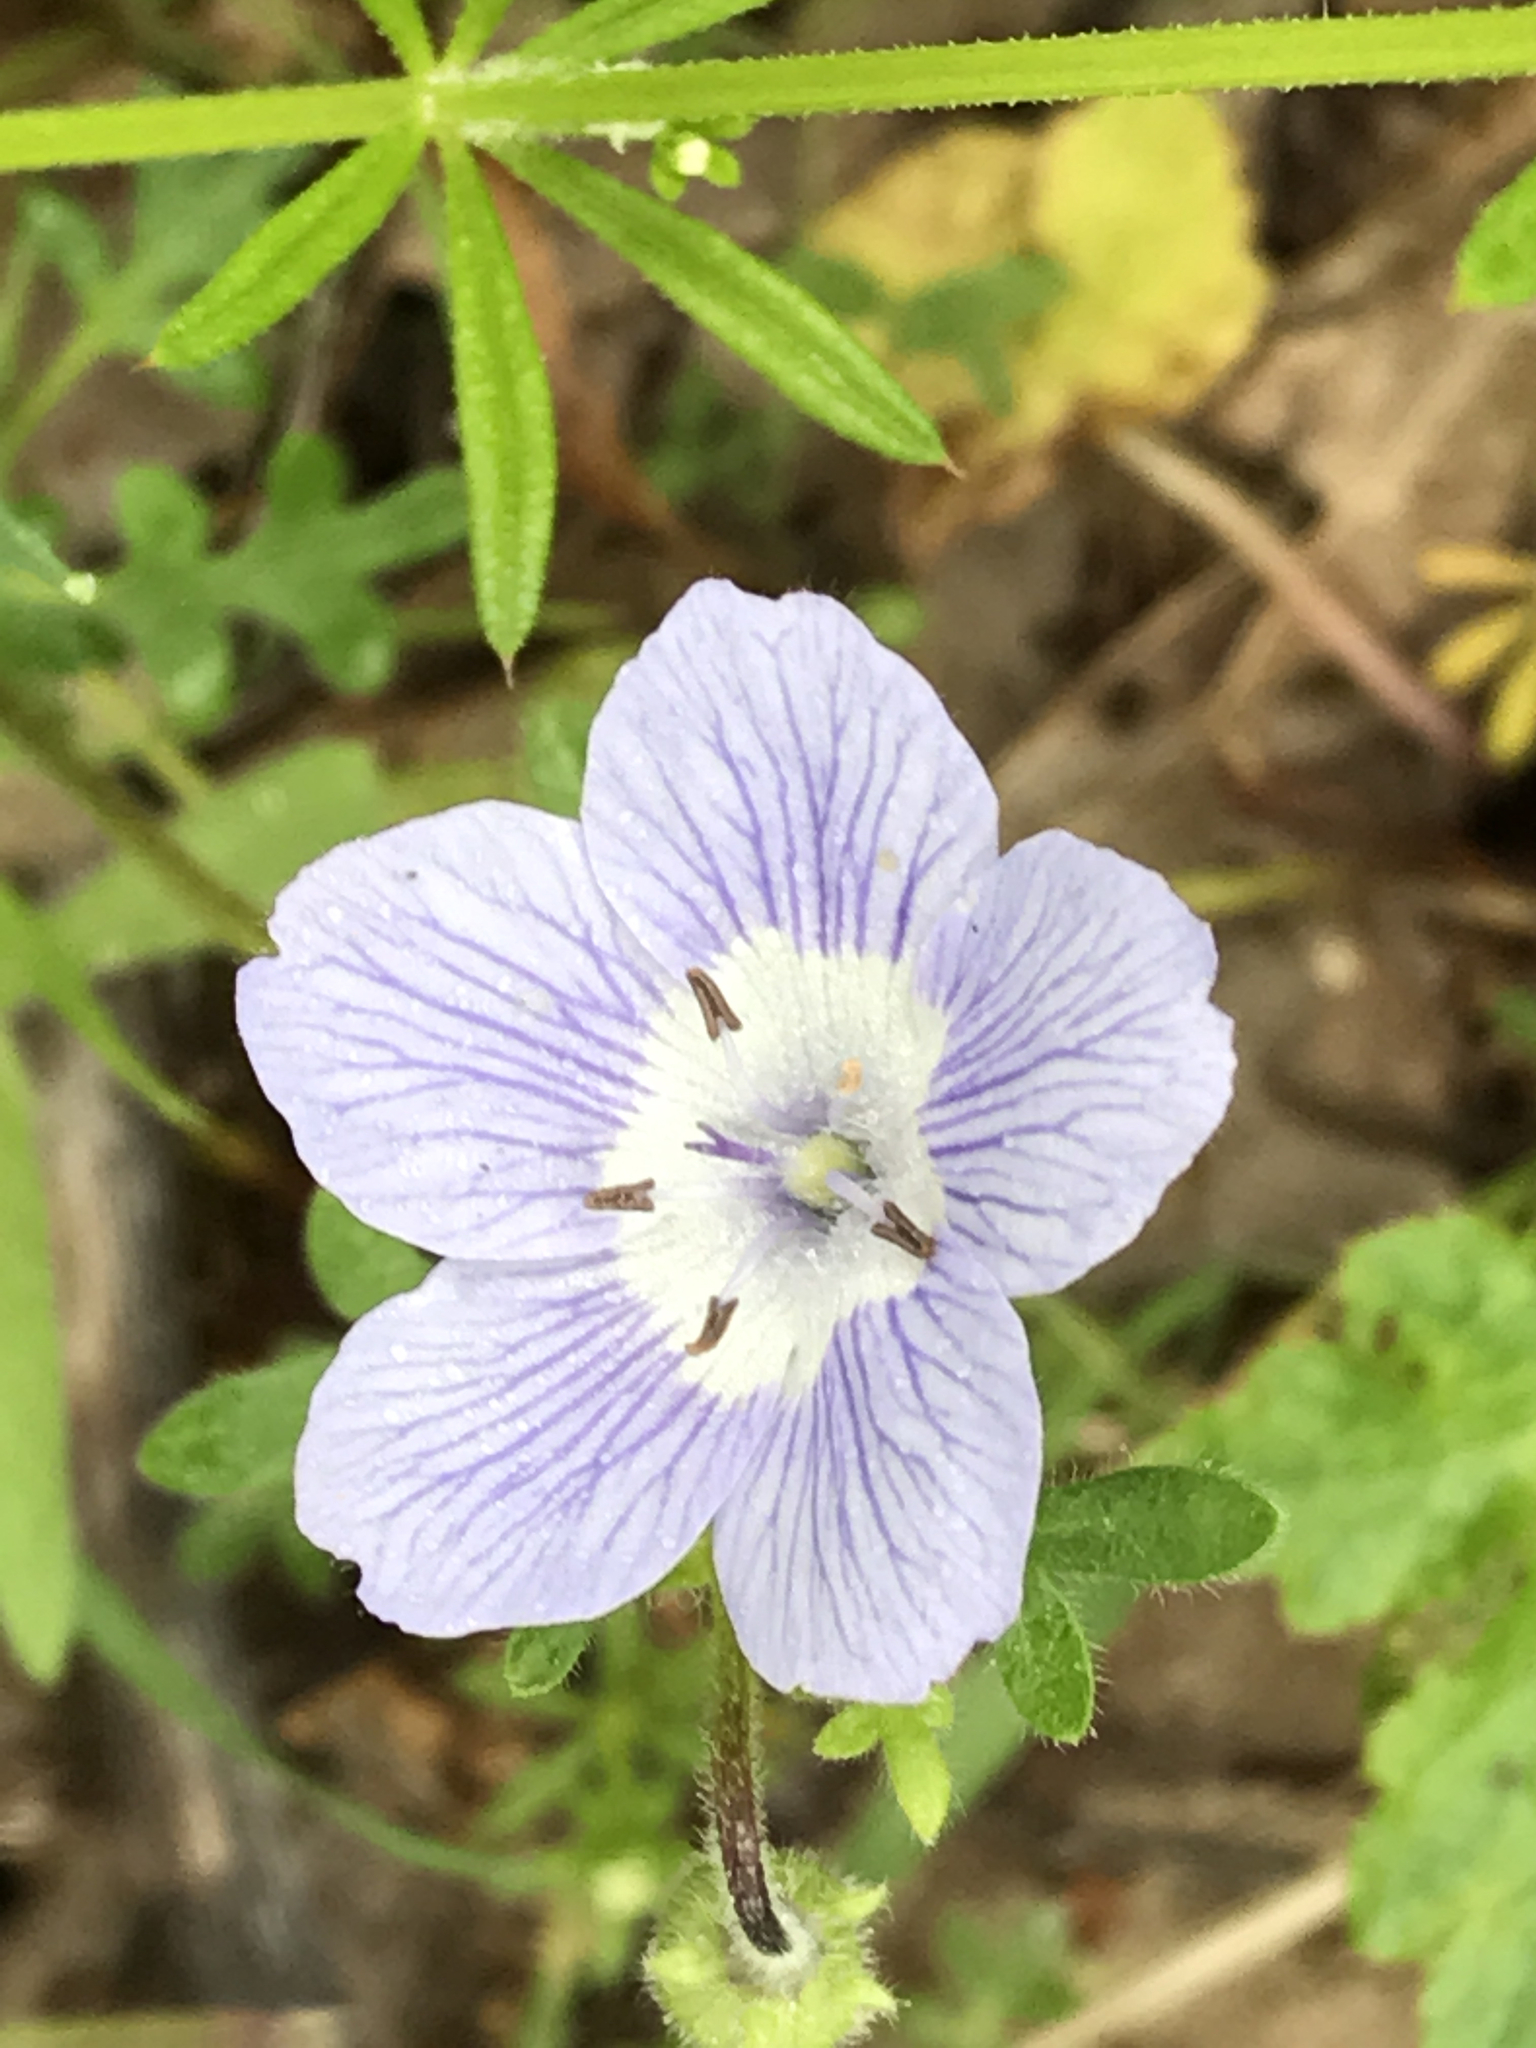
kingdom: Plantae
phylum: Tracheophyta
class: Magnoliopsida
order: Boraginales
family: Hydrophyllaceae
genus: Nemophila
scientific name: Nemophila menziesii
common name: Baby's-blue-eyes
